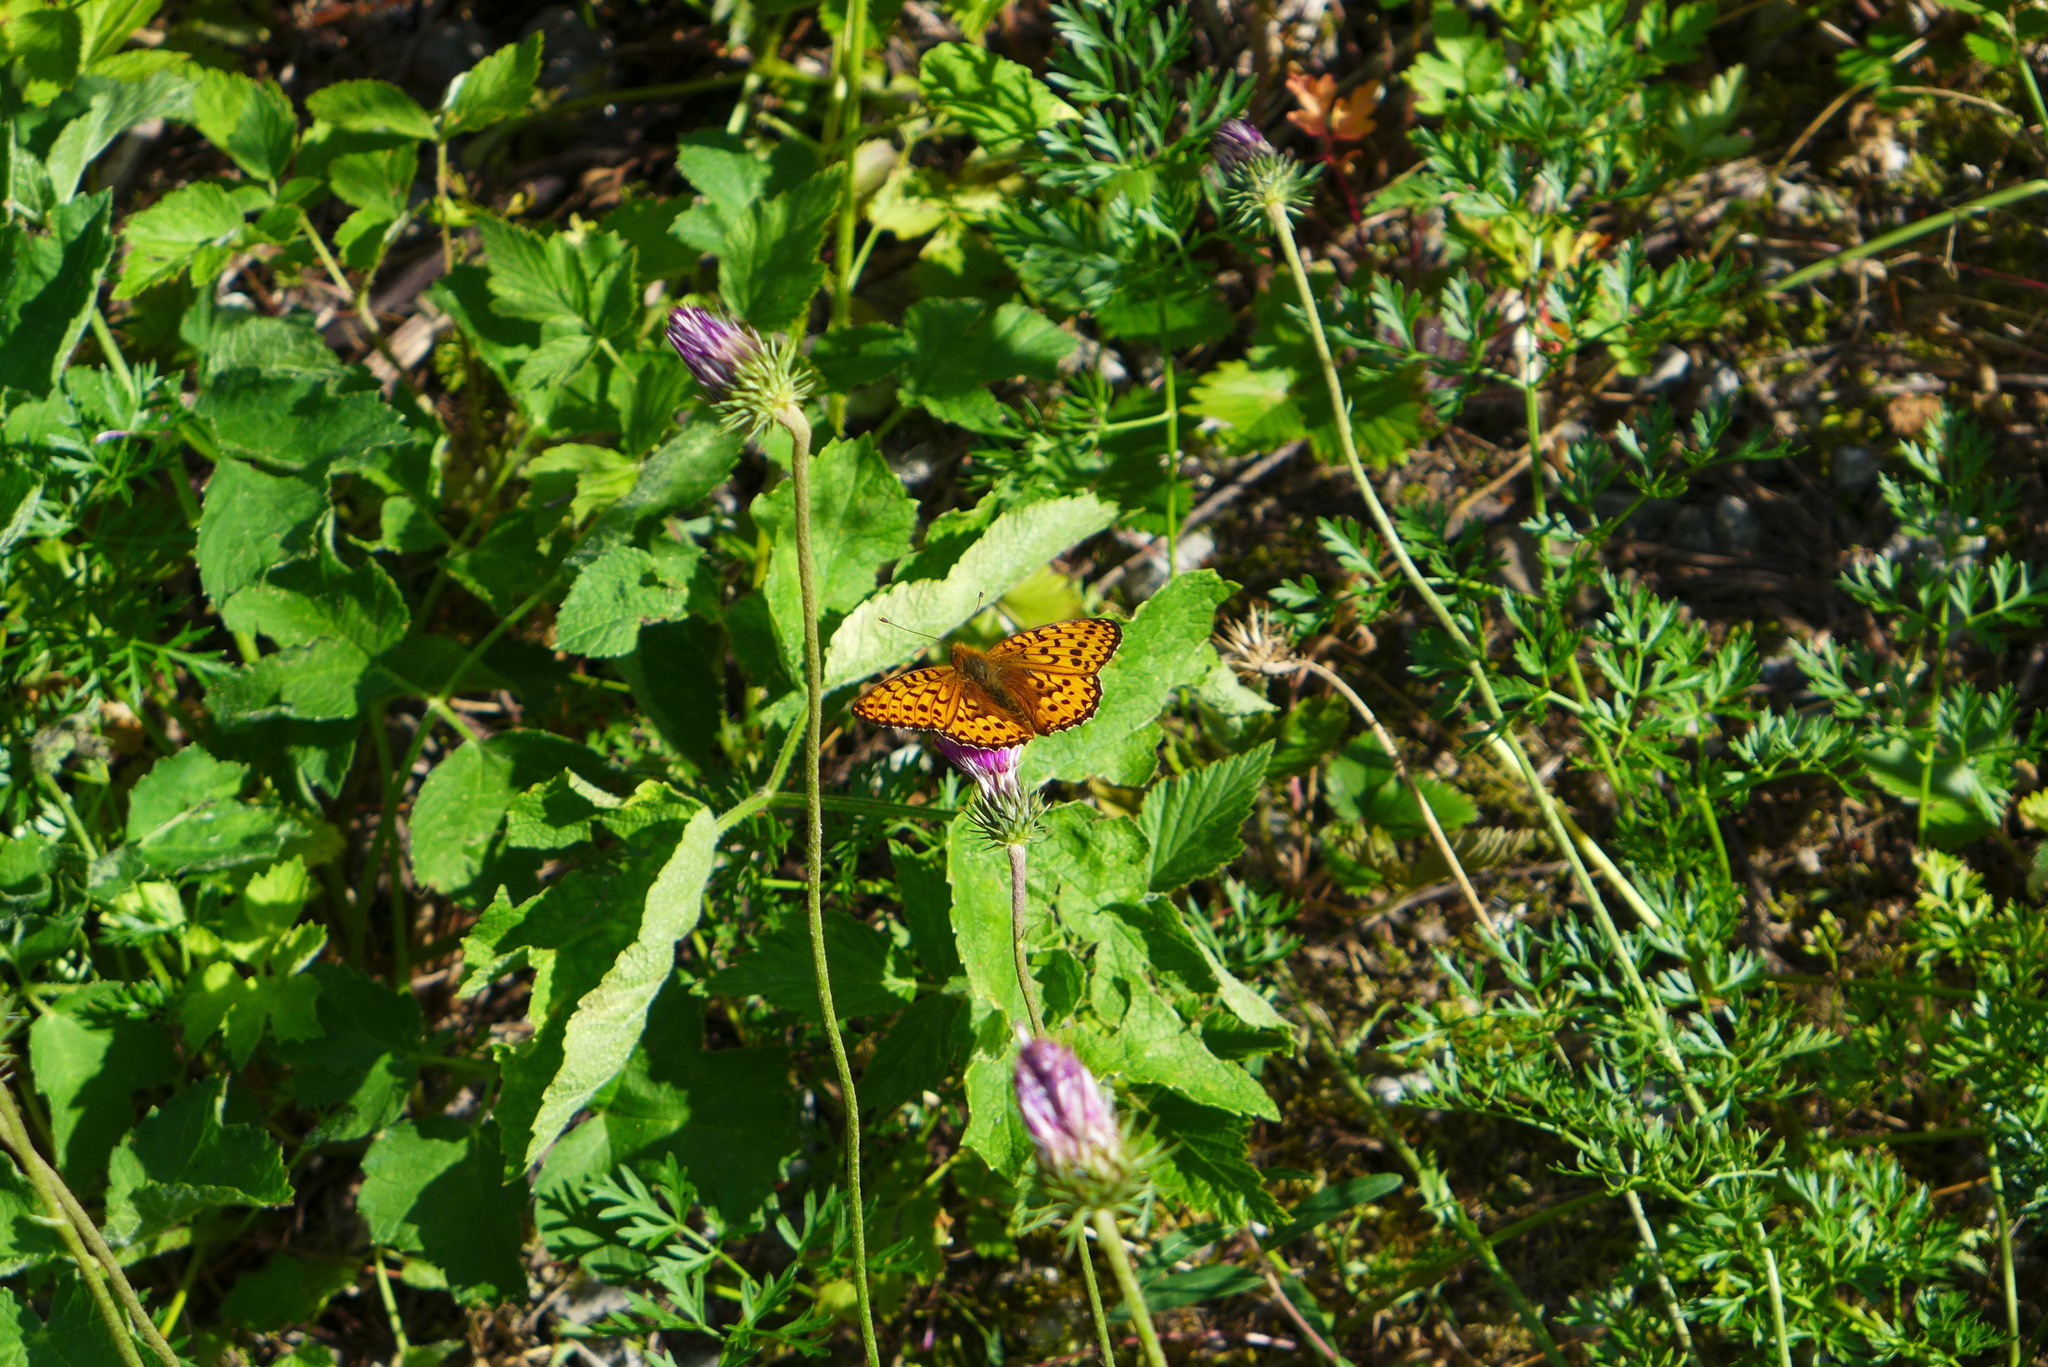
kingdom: Animalia
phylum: Arthropoda
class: Insecta
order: Lepidoptera
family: Nymphalidae
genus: Speyeria
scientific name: Speyeria aglaja
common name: Dark green fritillary
